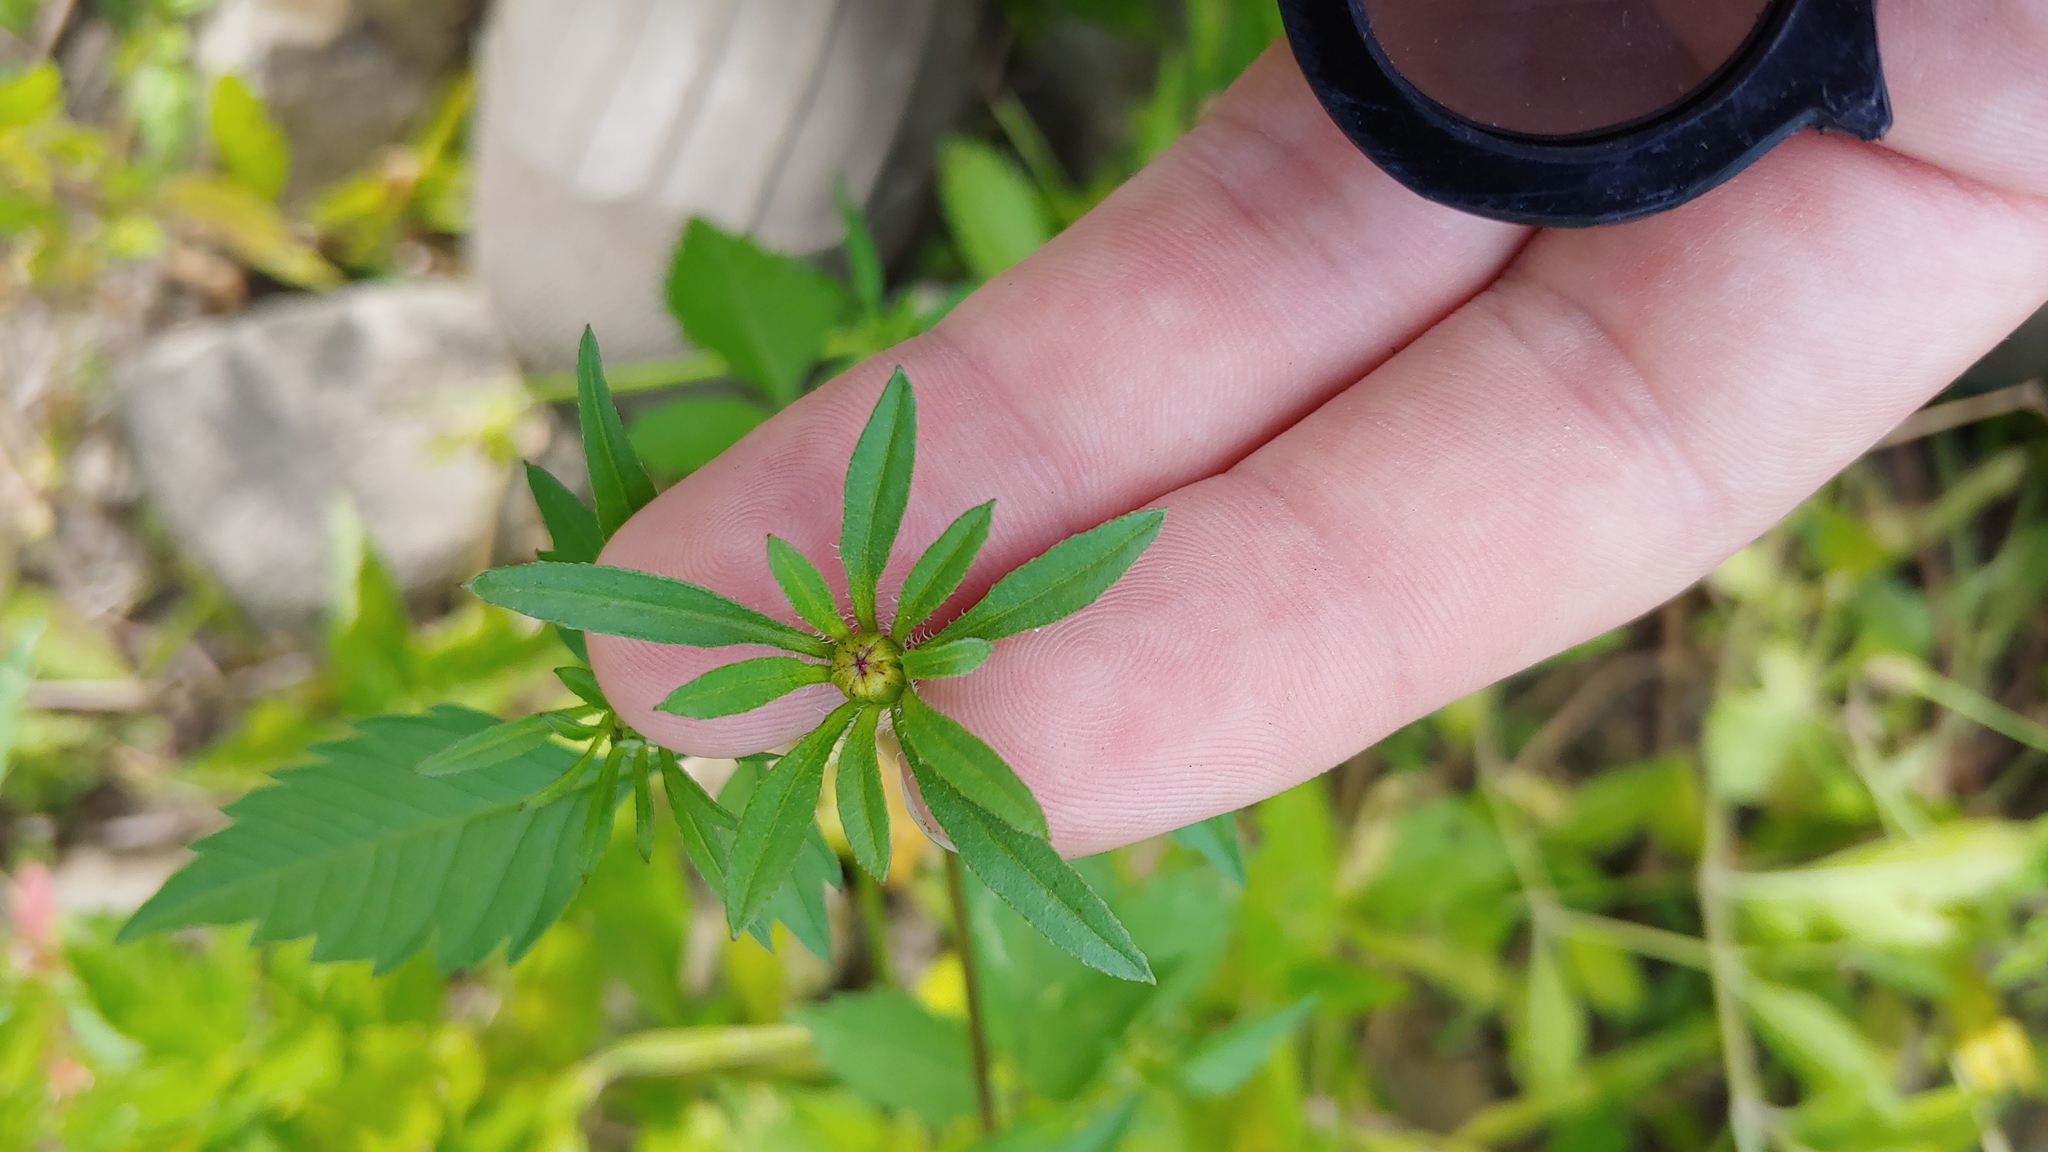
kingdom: Plantae
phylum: Tracheophyta
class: Magnoliopsida
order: Asterales
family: Asteraceae
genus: Bidens
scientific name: Bidens vulgata
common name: Tall beggarticks
